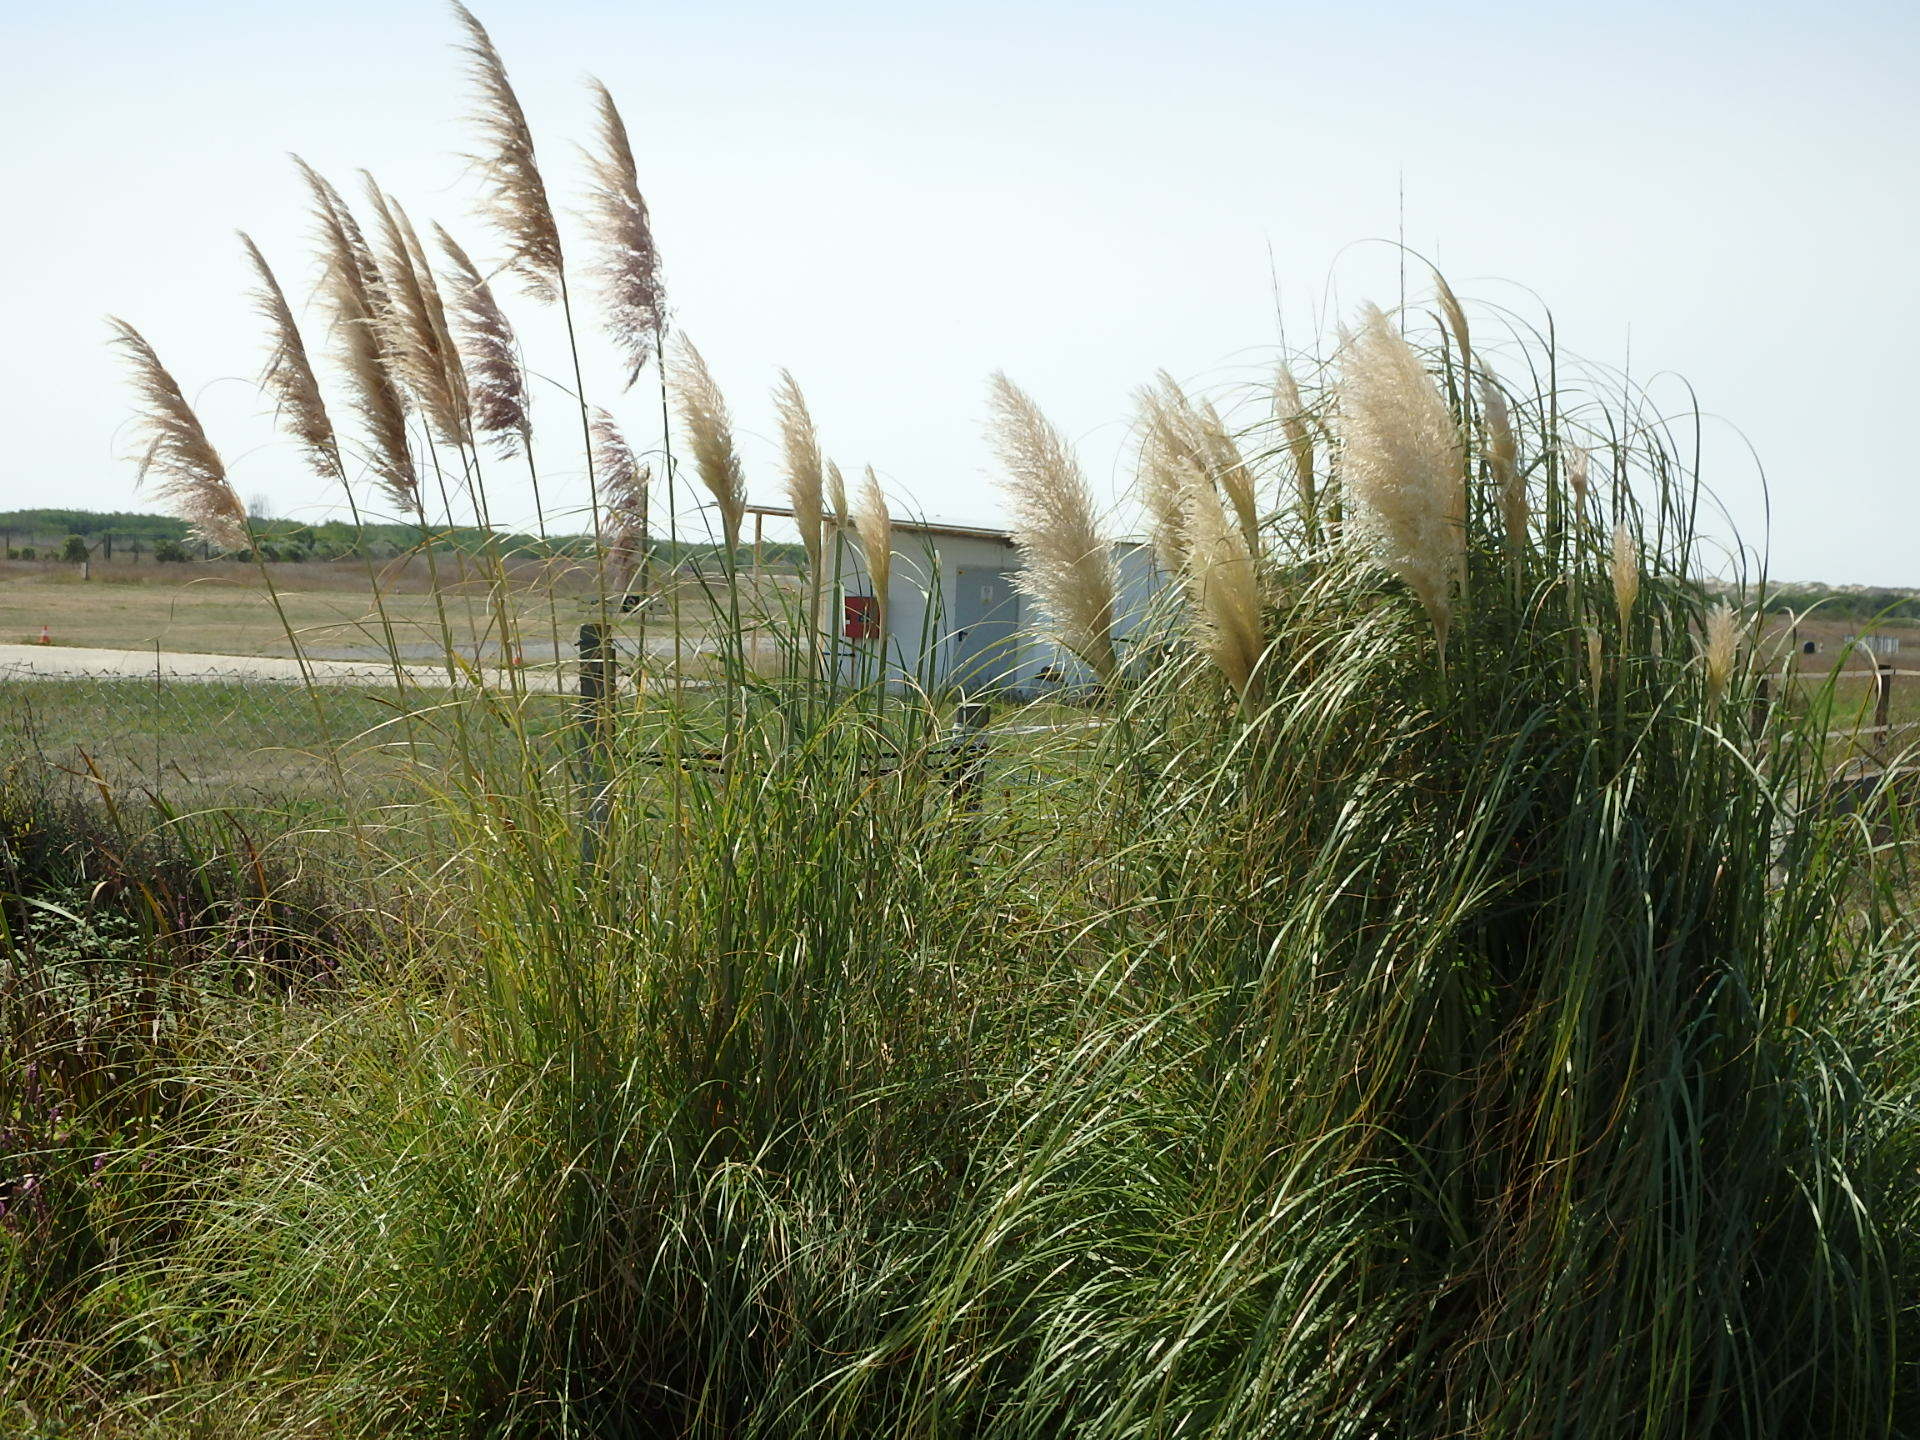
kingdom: Plantae
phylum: Tracheophyta
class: Liliopsida
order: Poales
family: Poaceae
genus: Cortaderia
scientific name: Cortaderia selloana
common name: Uruguayan pampas grass
